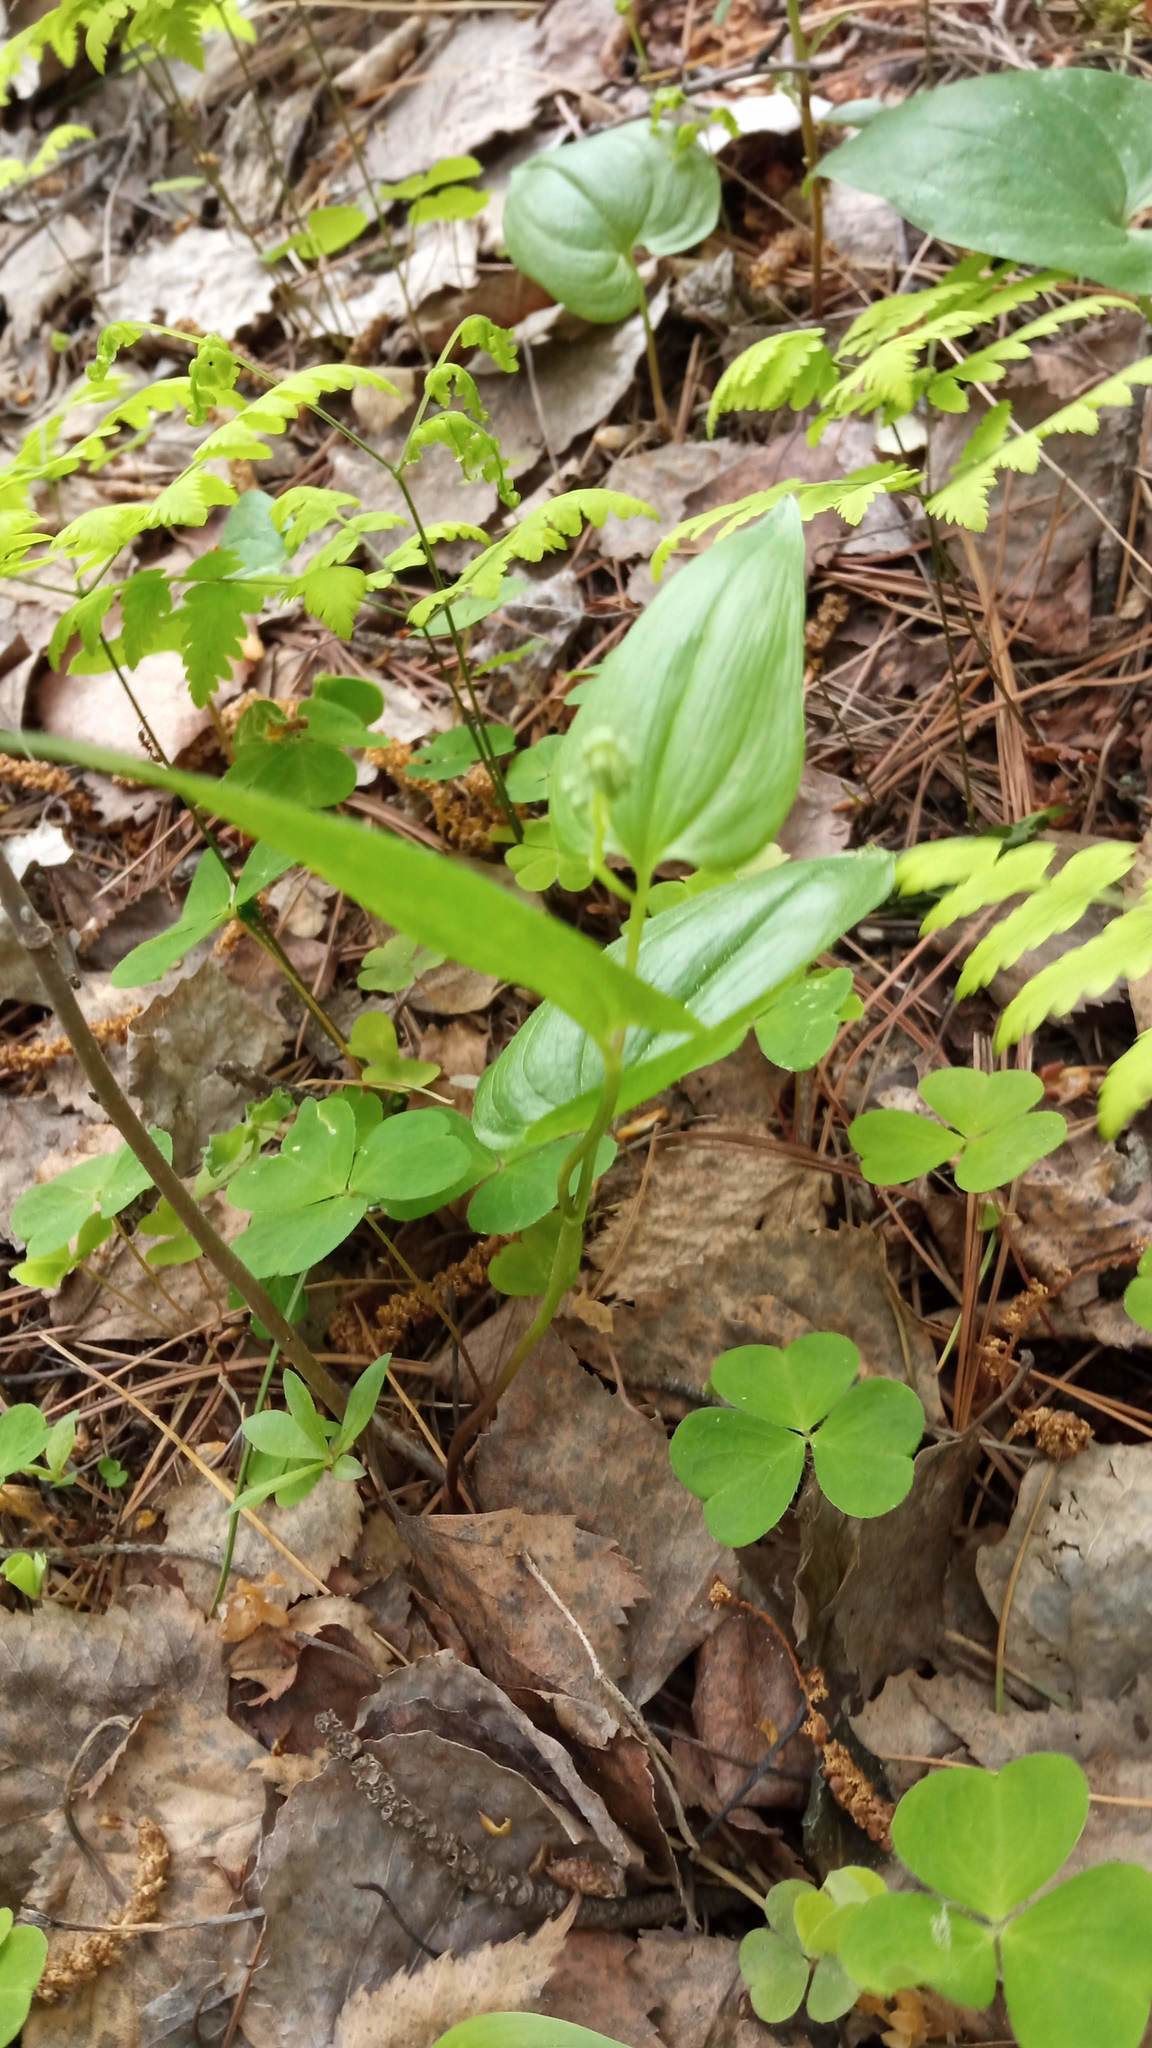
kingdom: Plantae
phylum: Tracheophyta
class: Liliopsida
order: Asparagales
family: Asparagaceae
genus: Maianthemum
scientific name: Maianthemum bifolium
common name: May lily
